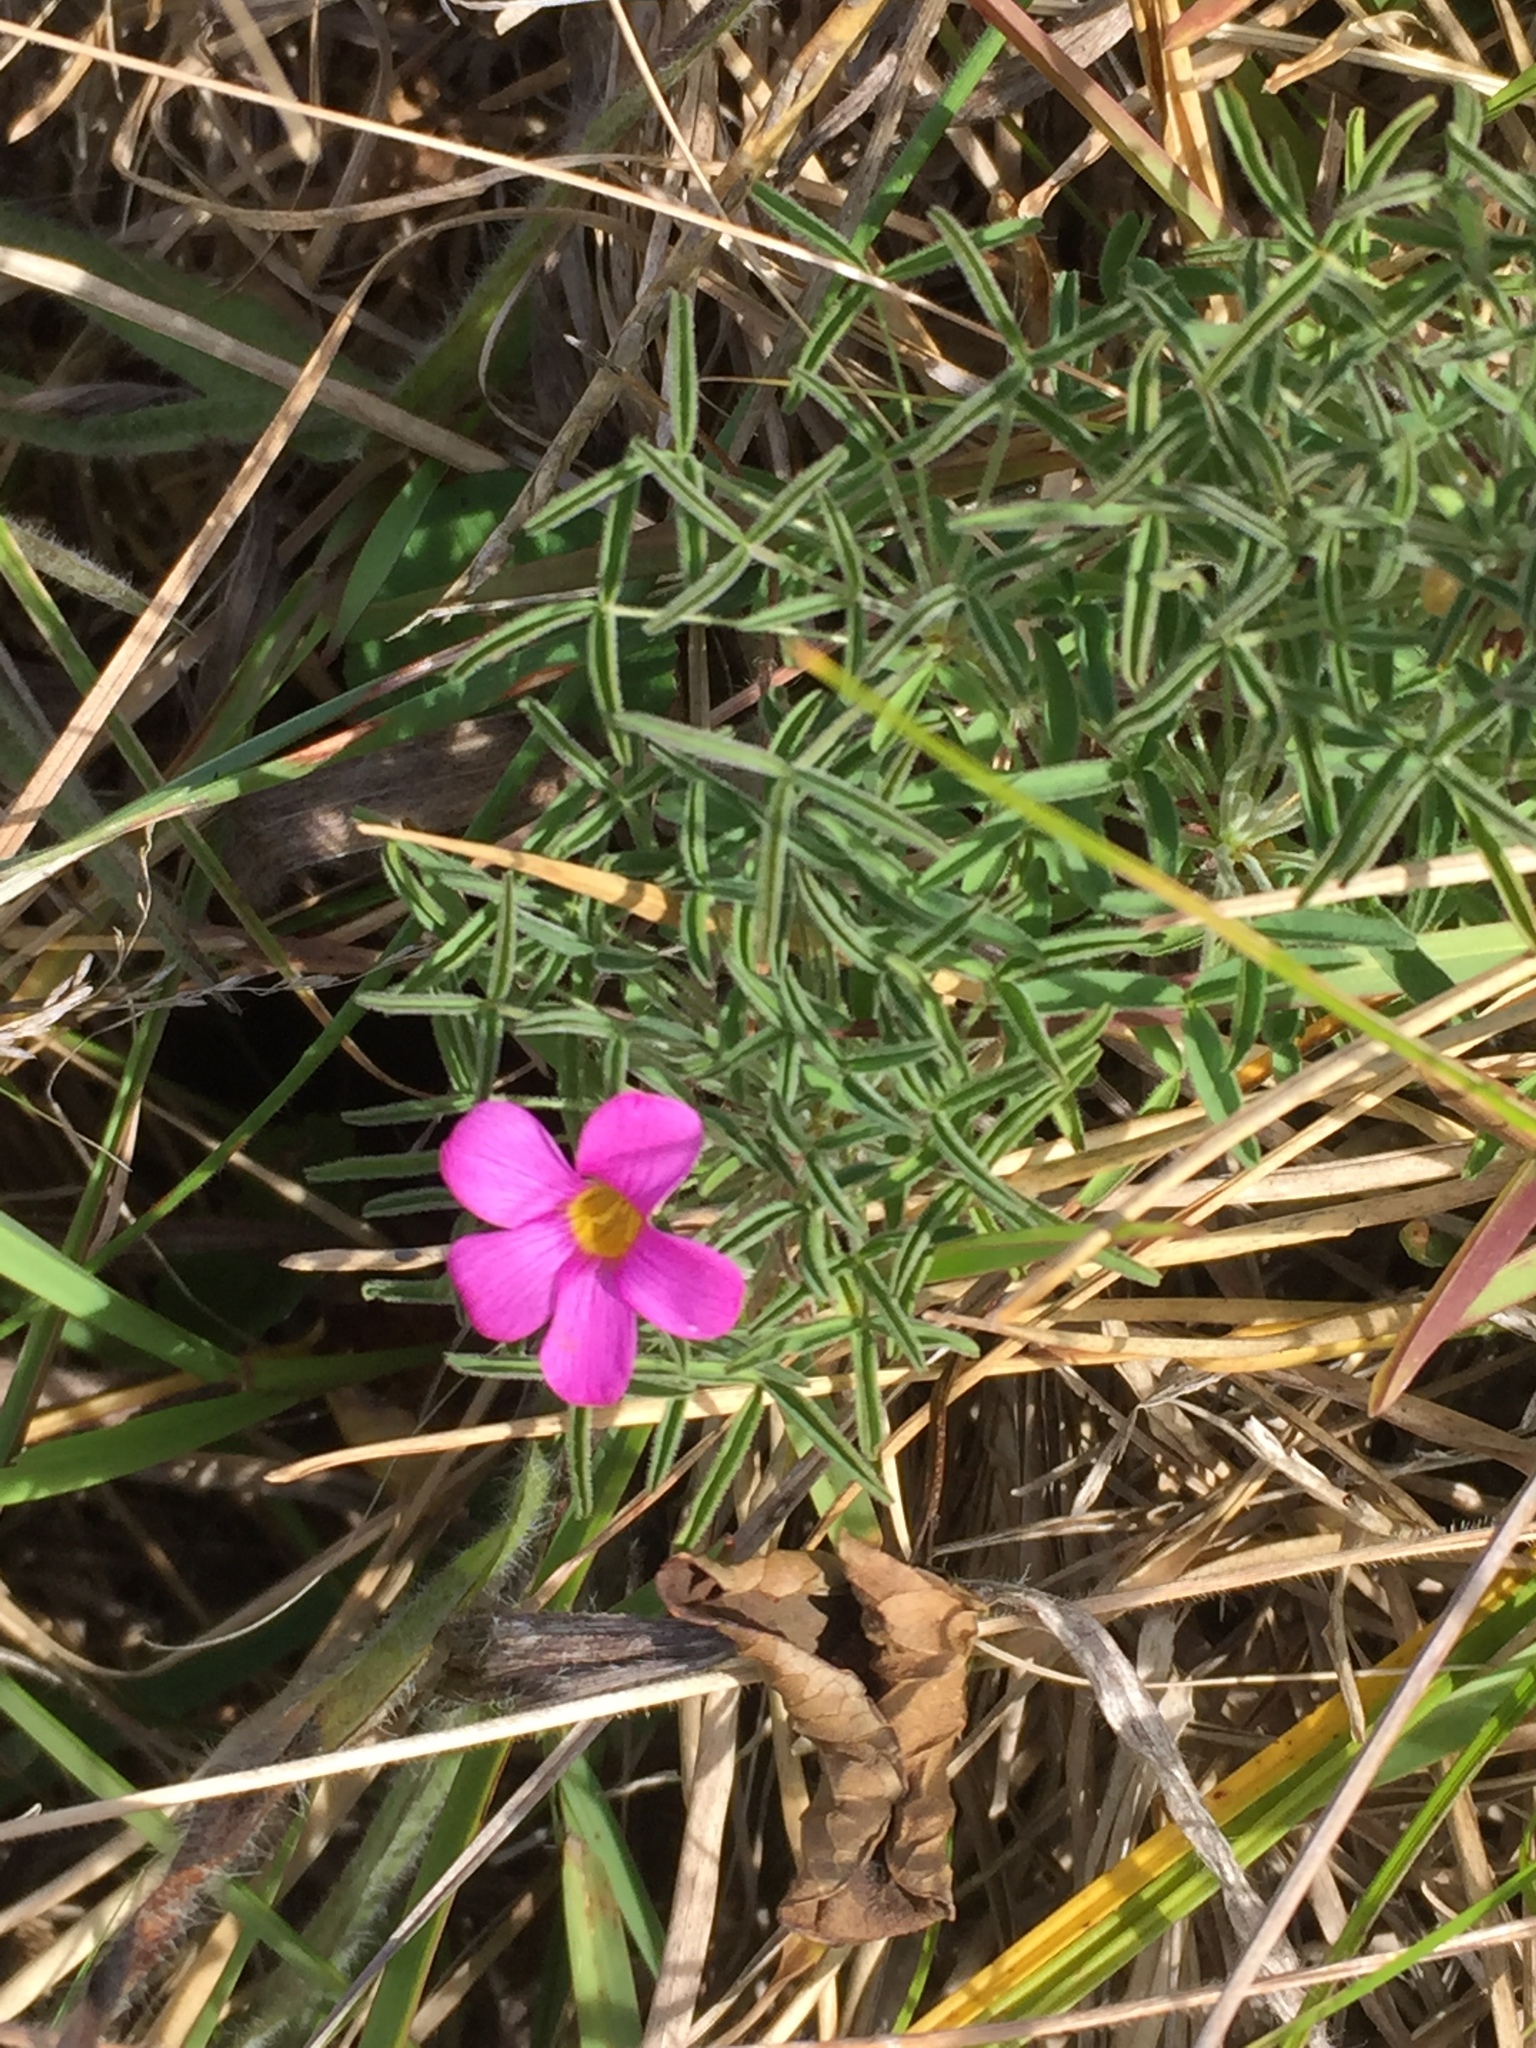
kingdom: Plantae
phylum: Tracheophyta
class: Magnoliopsida
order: Oxalidales
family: Oxalidaceae
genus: Oxalis
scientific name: Oxalis ciliaris
